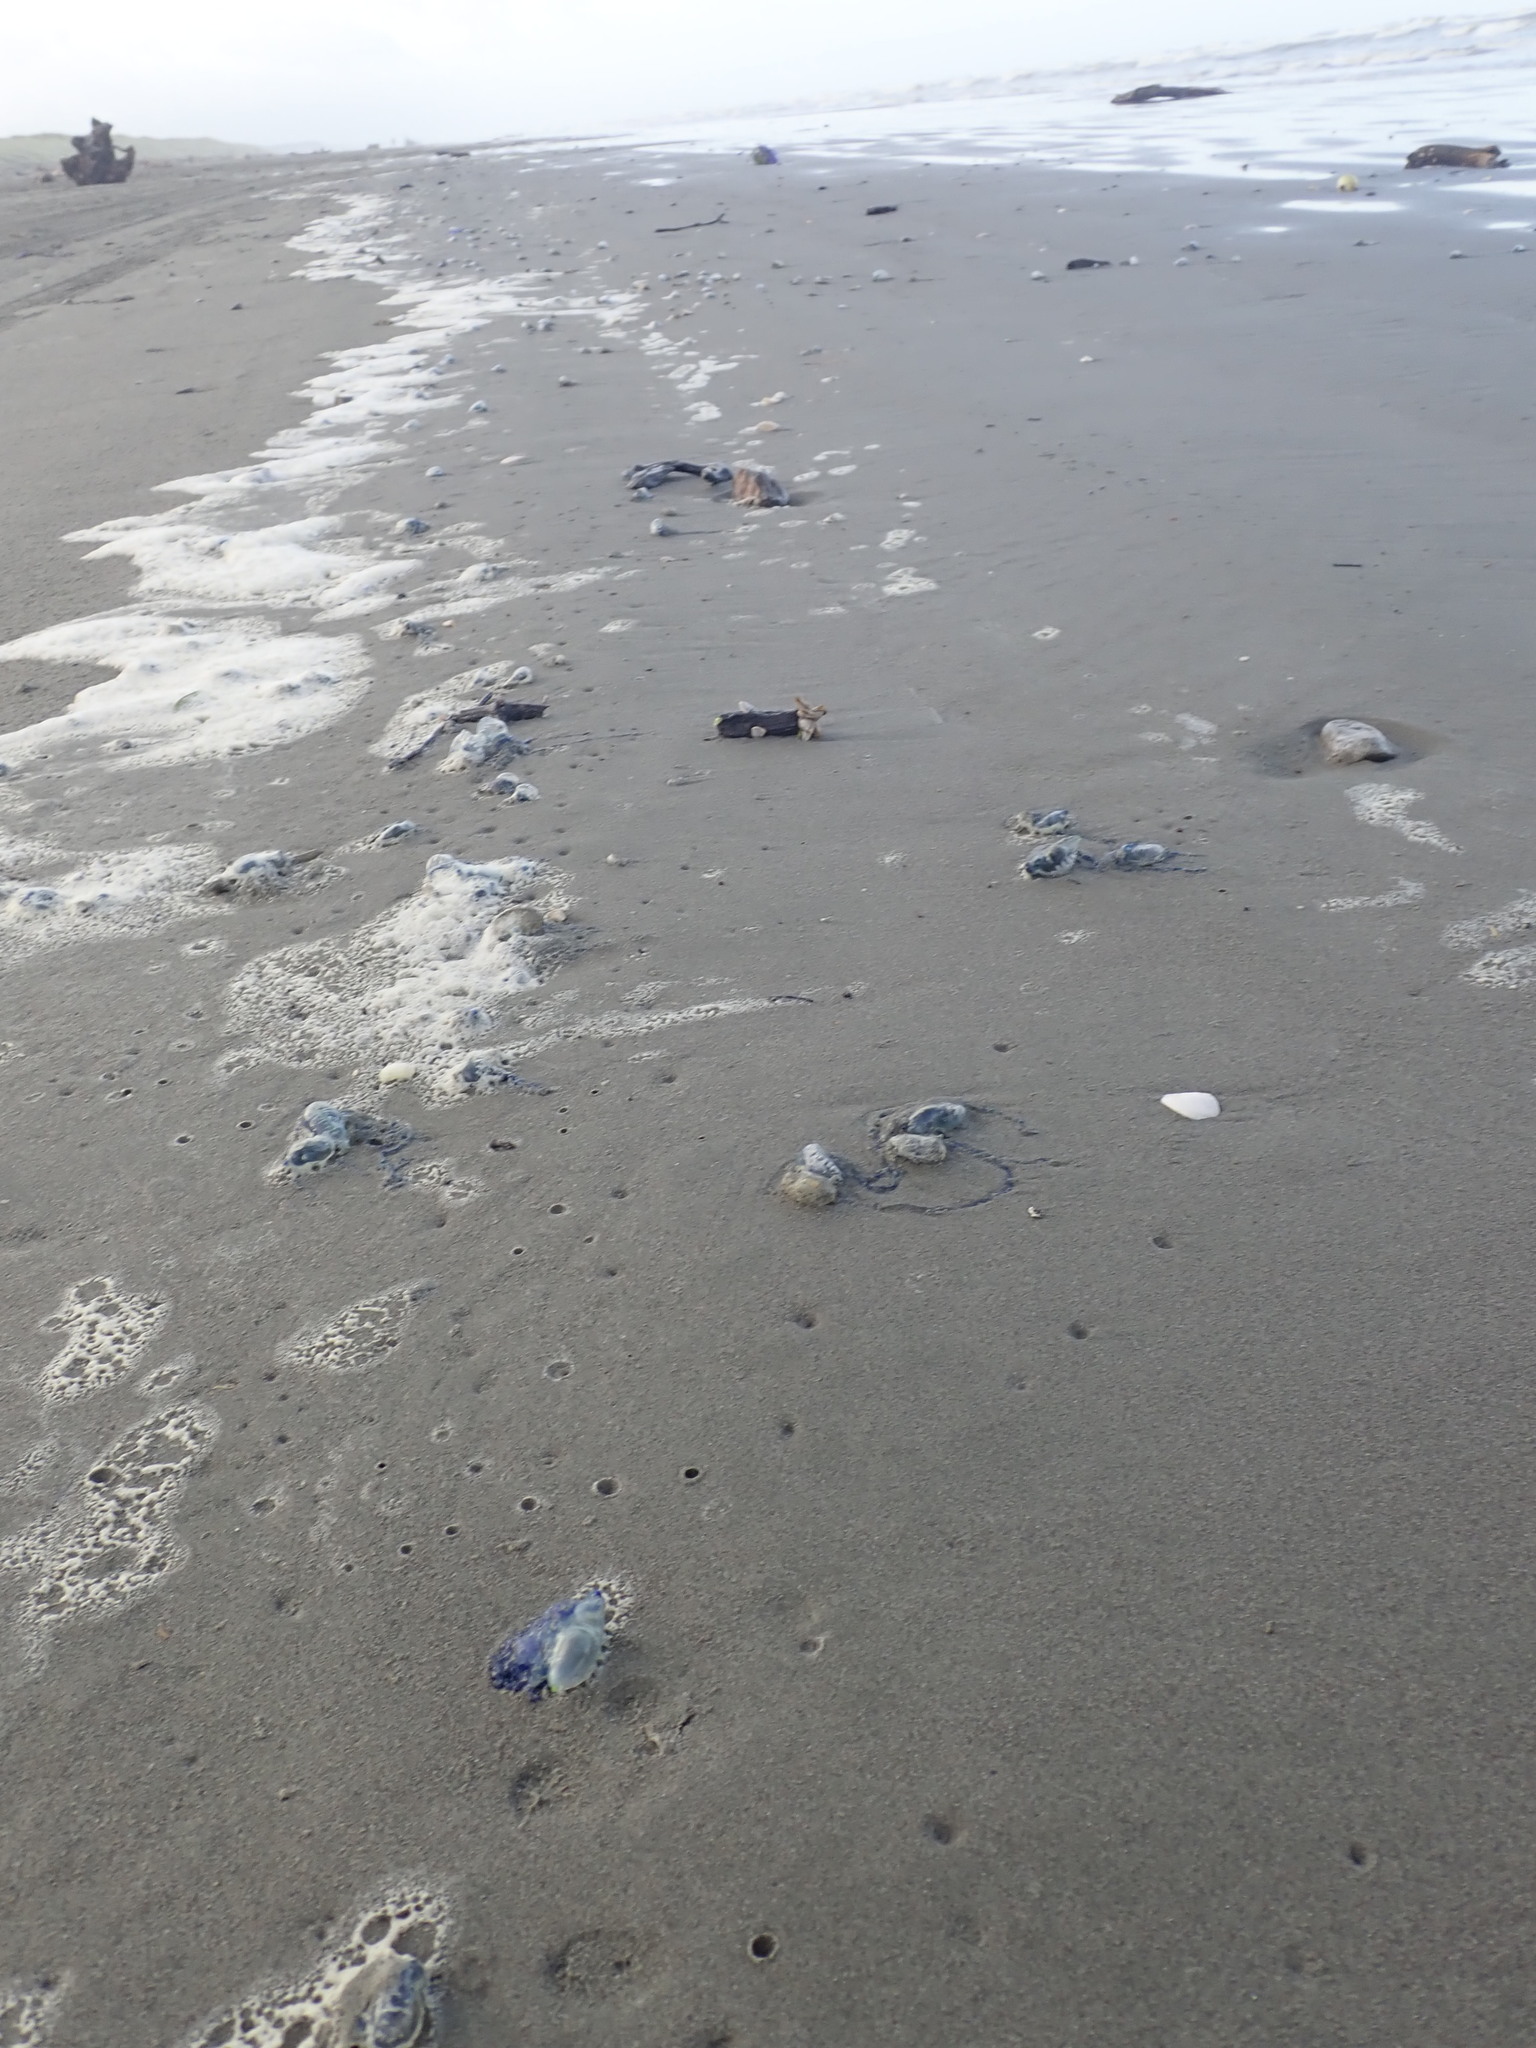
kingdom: Animalia
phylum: Cnidaria
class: Hydrozoa
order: Siphonophorae
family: Physaliidae
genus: Physalia
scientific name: Physalia physalis
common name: Portuguese man-of-war
